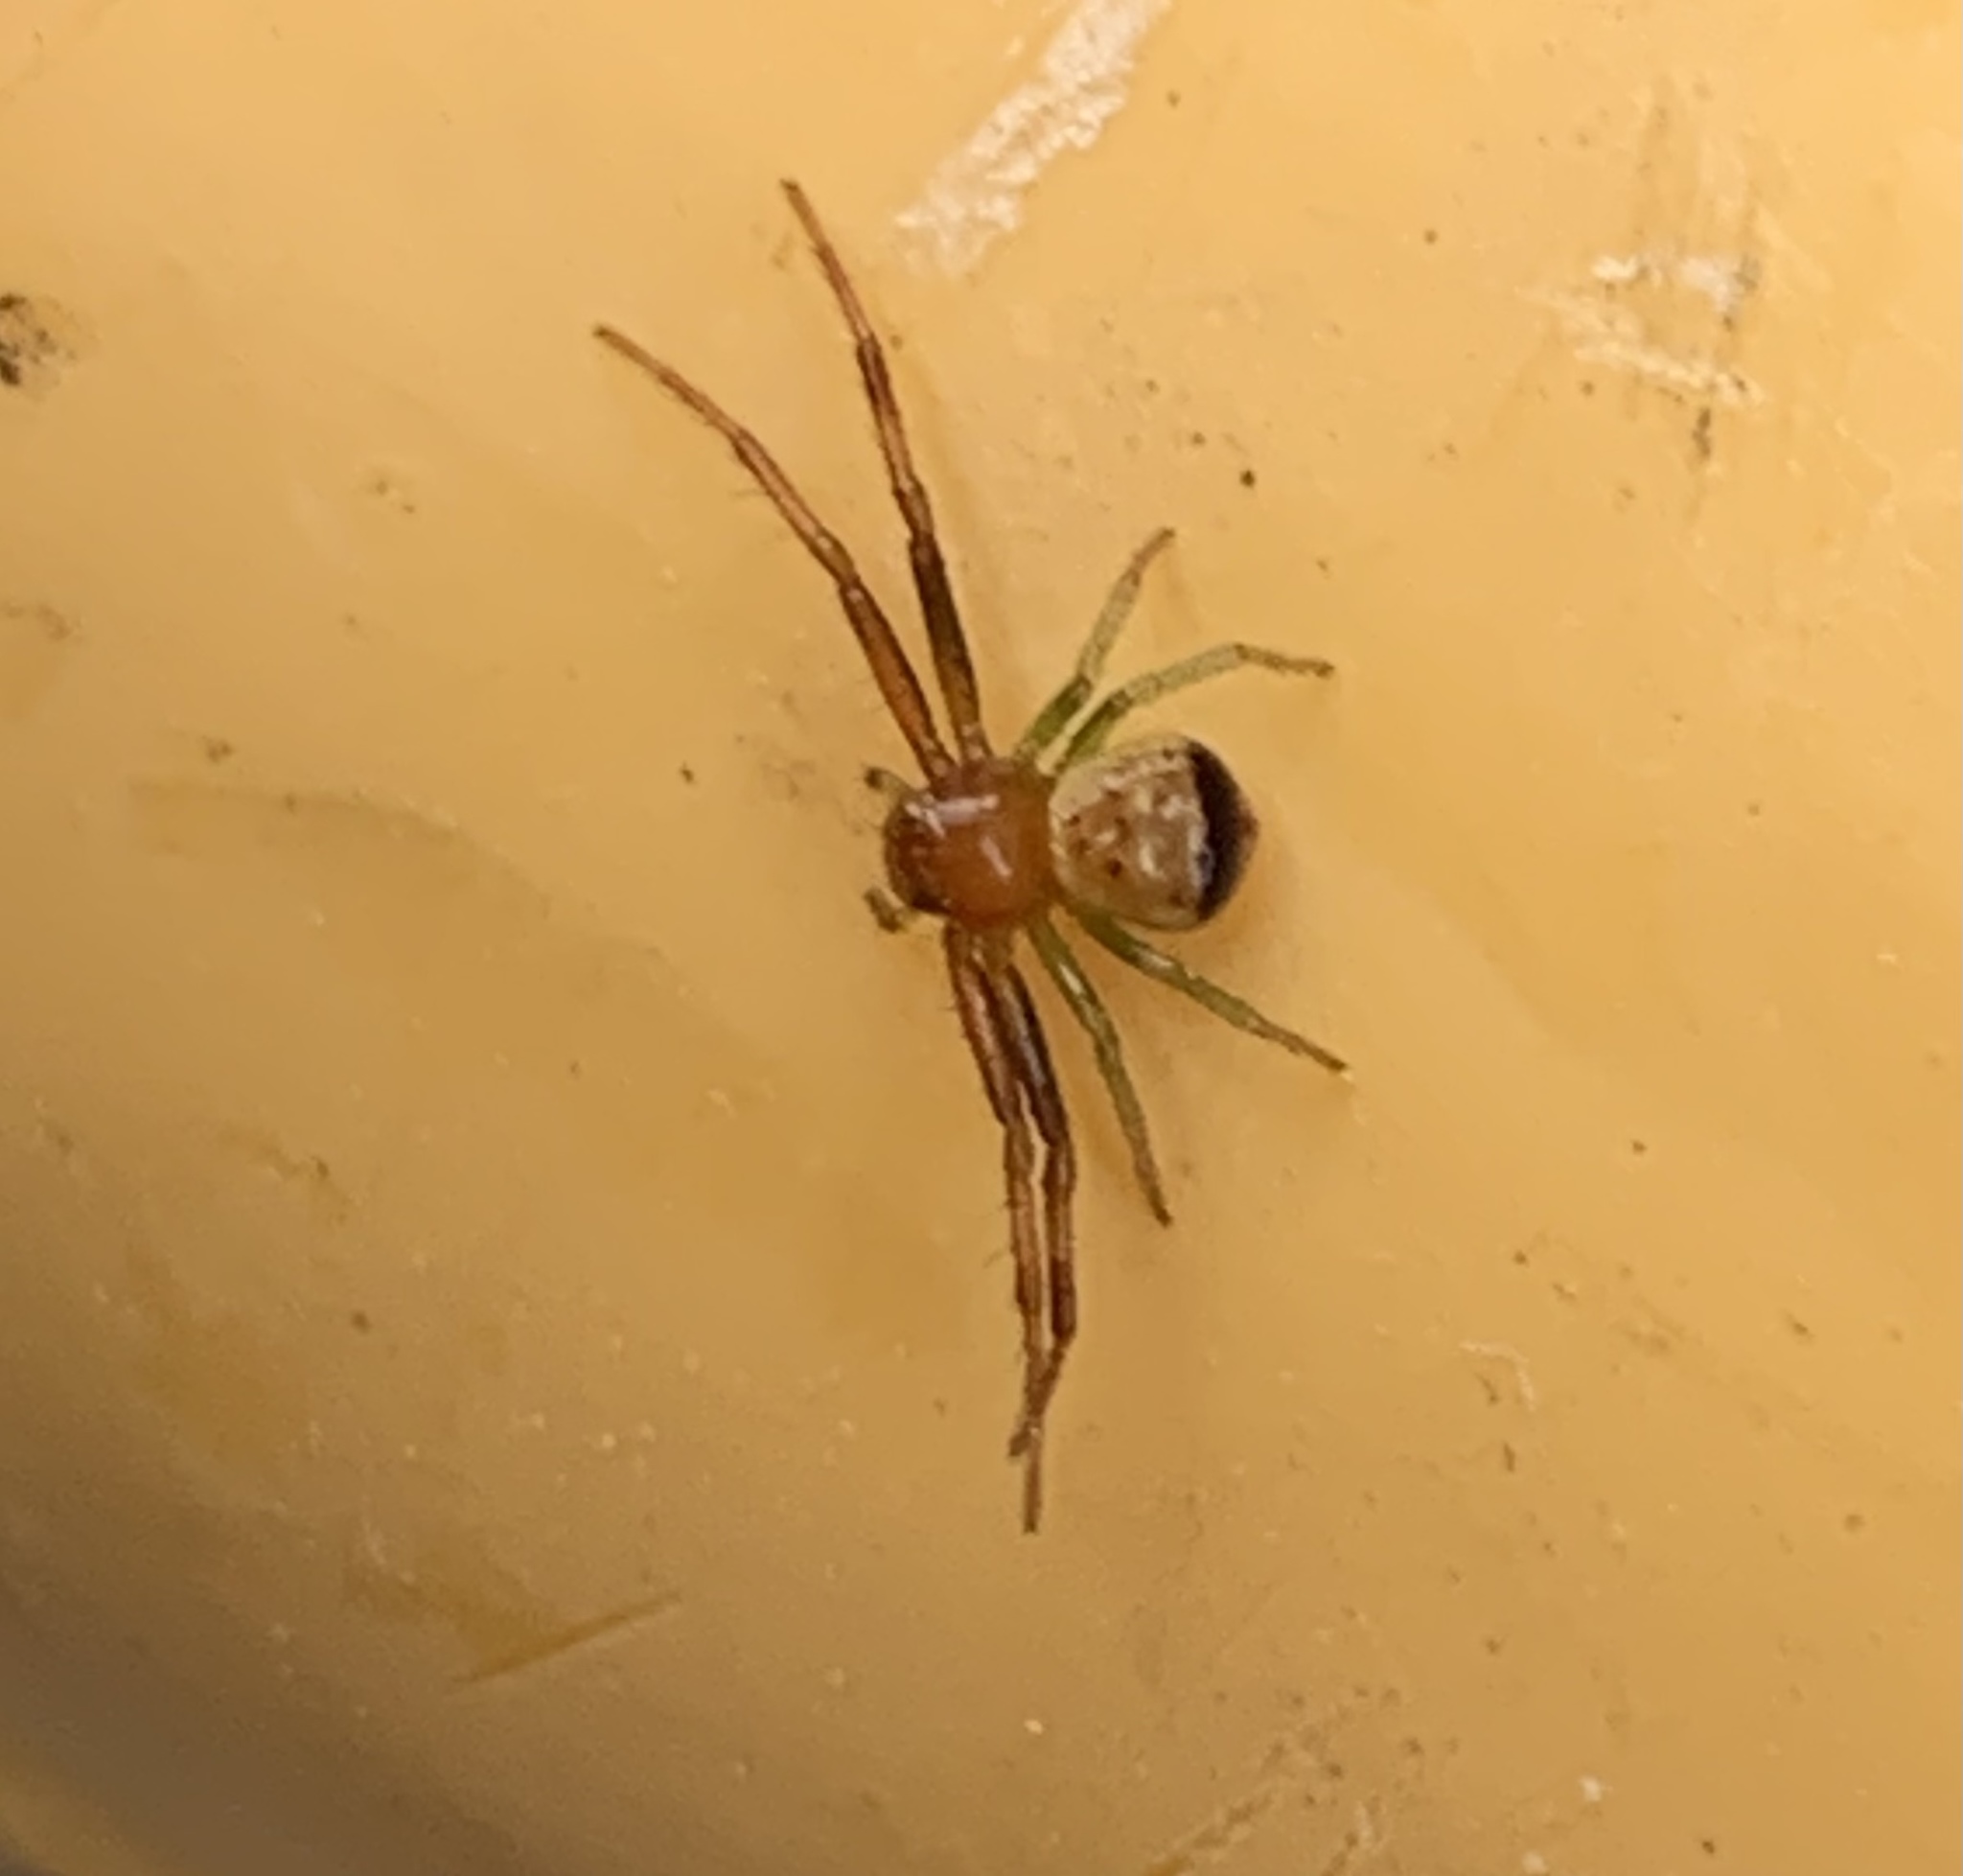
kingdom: Animalia
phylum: Arthropoda
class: Arachnida
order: Araneae
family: Thomisidae
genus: Synema
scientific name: Synema parvulum
